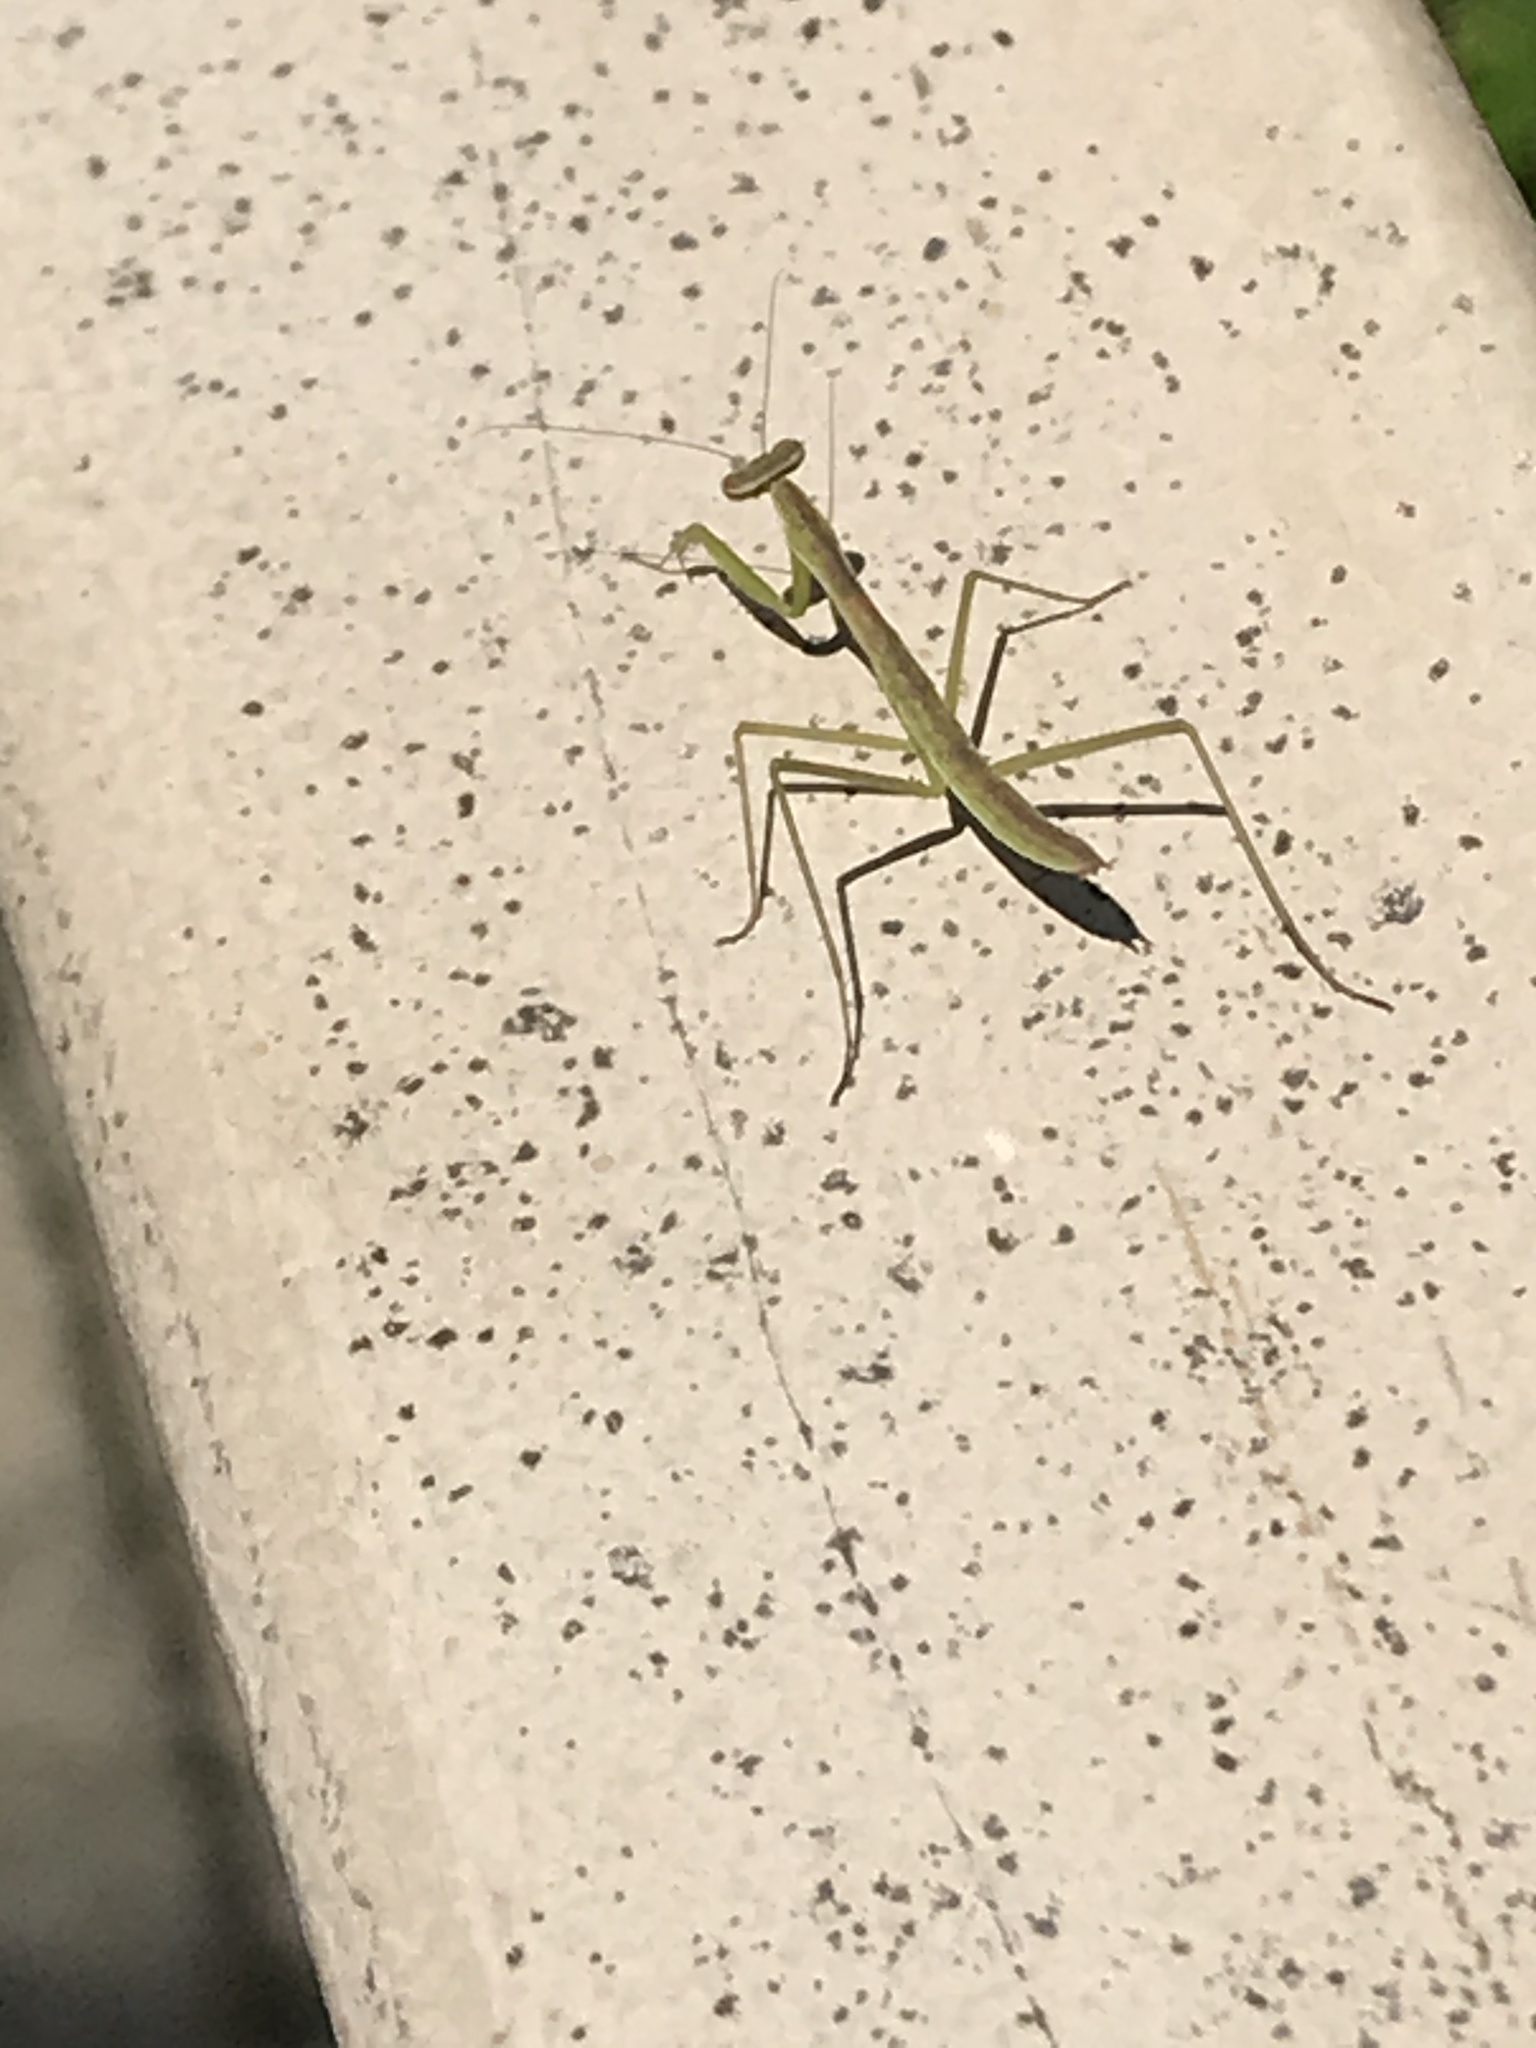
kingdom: Animalia
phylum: Arthropoda
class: Insecta
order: Mantodea
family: Mantidae
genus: Tenodera
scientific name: Tenodera sinensis
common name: Chinese mantis
